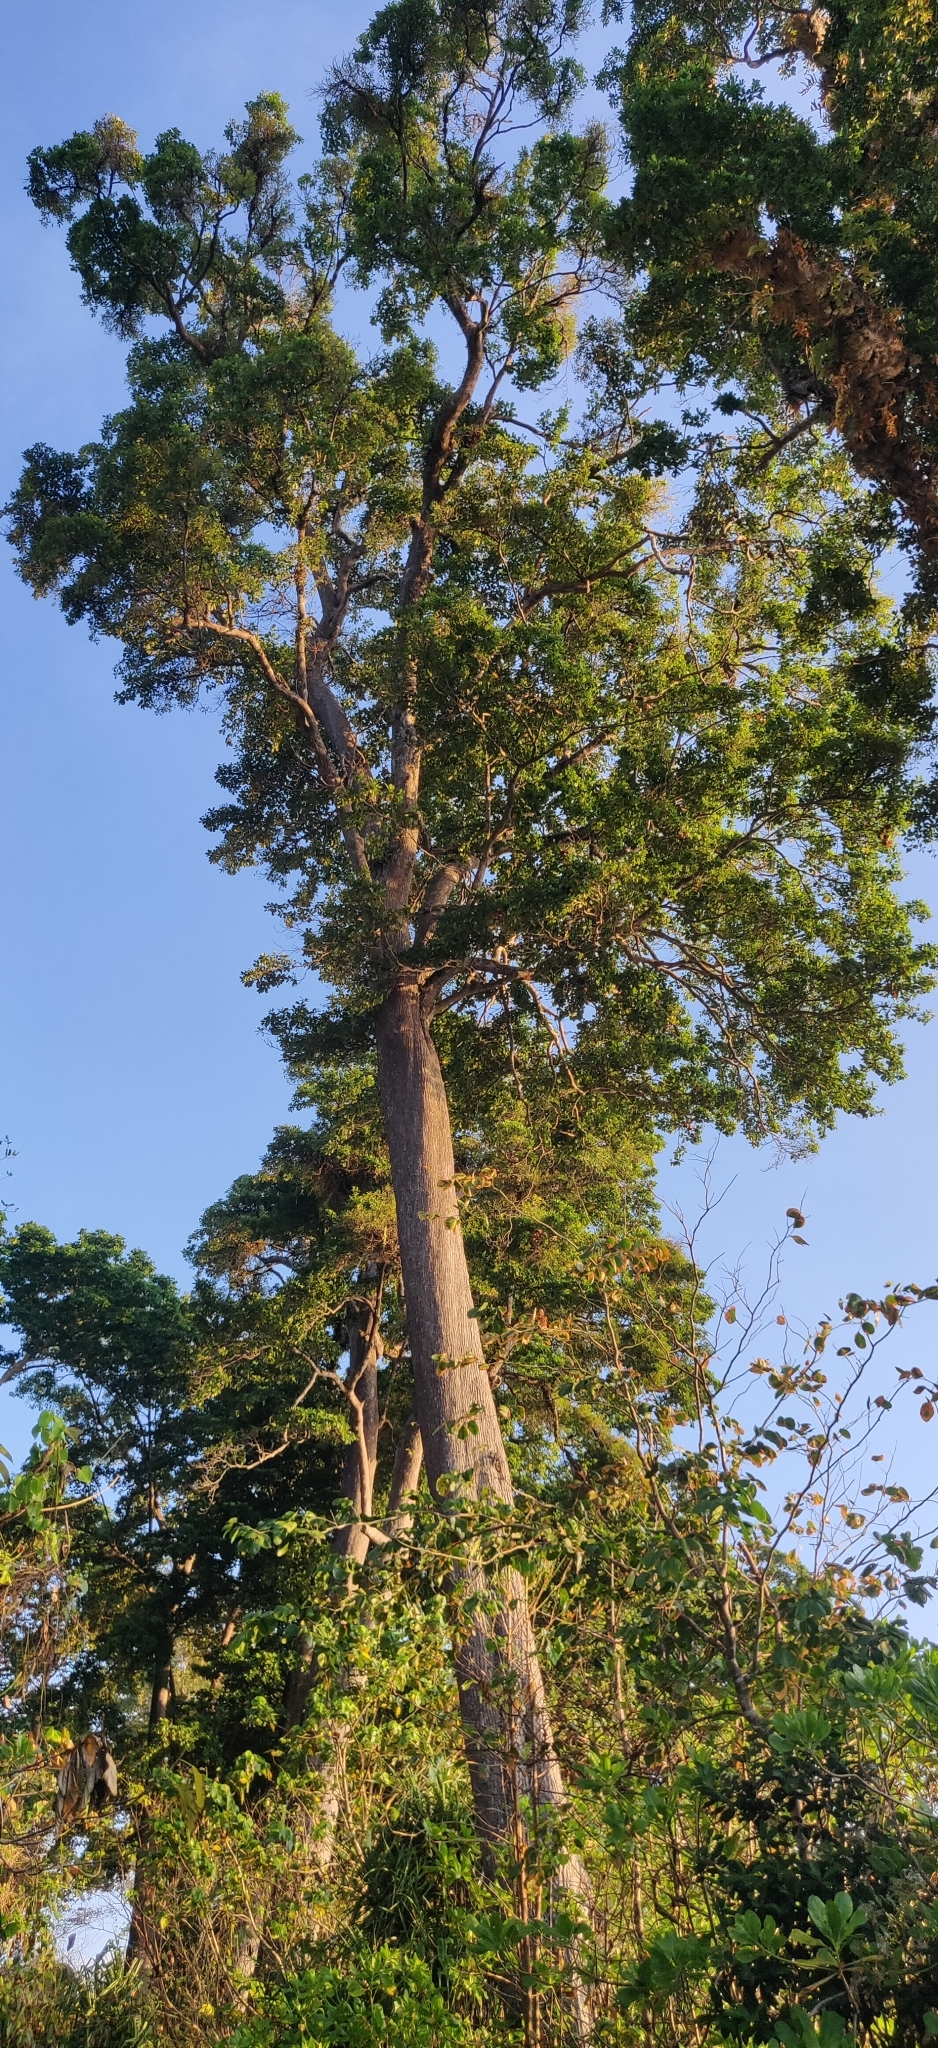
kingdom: Plantae
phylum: Tracheophyta
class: Magnoliopsida
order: Ericales
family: Sapotaceae
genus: Manilkara
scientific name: Manilkara littoralis
